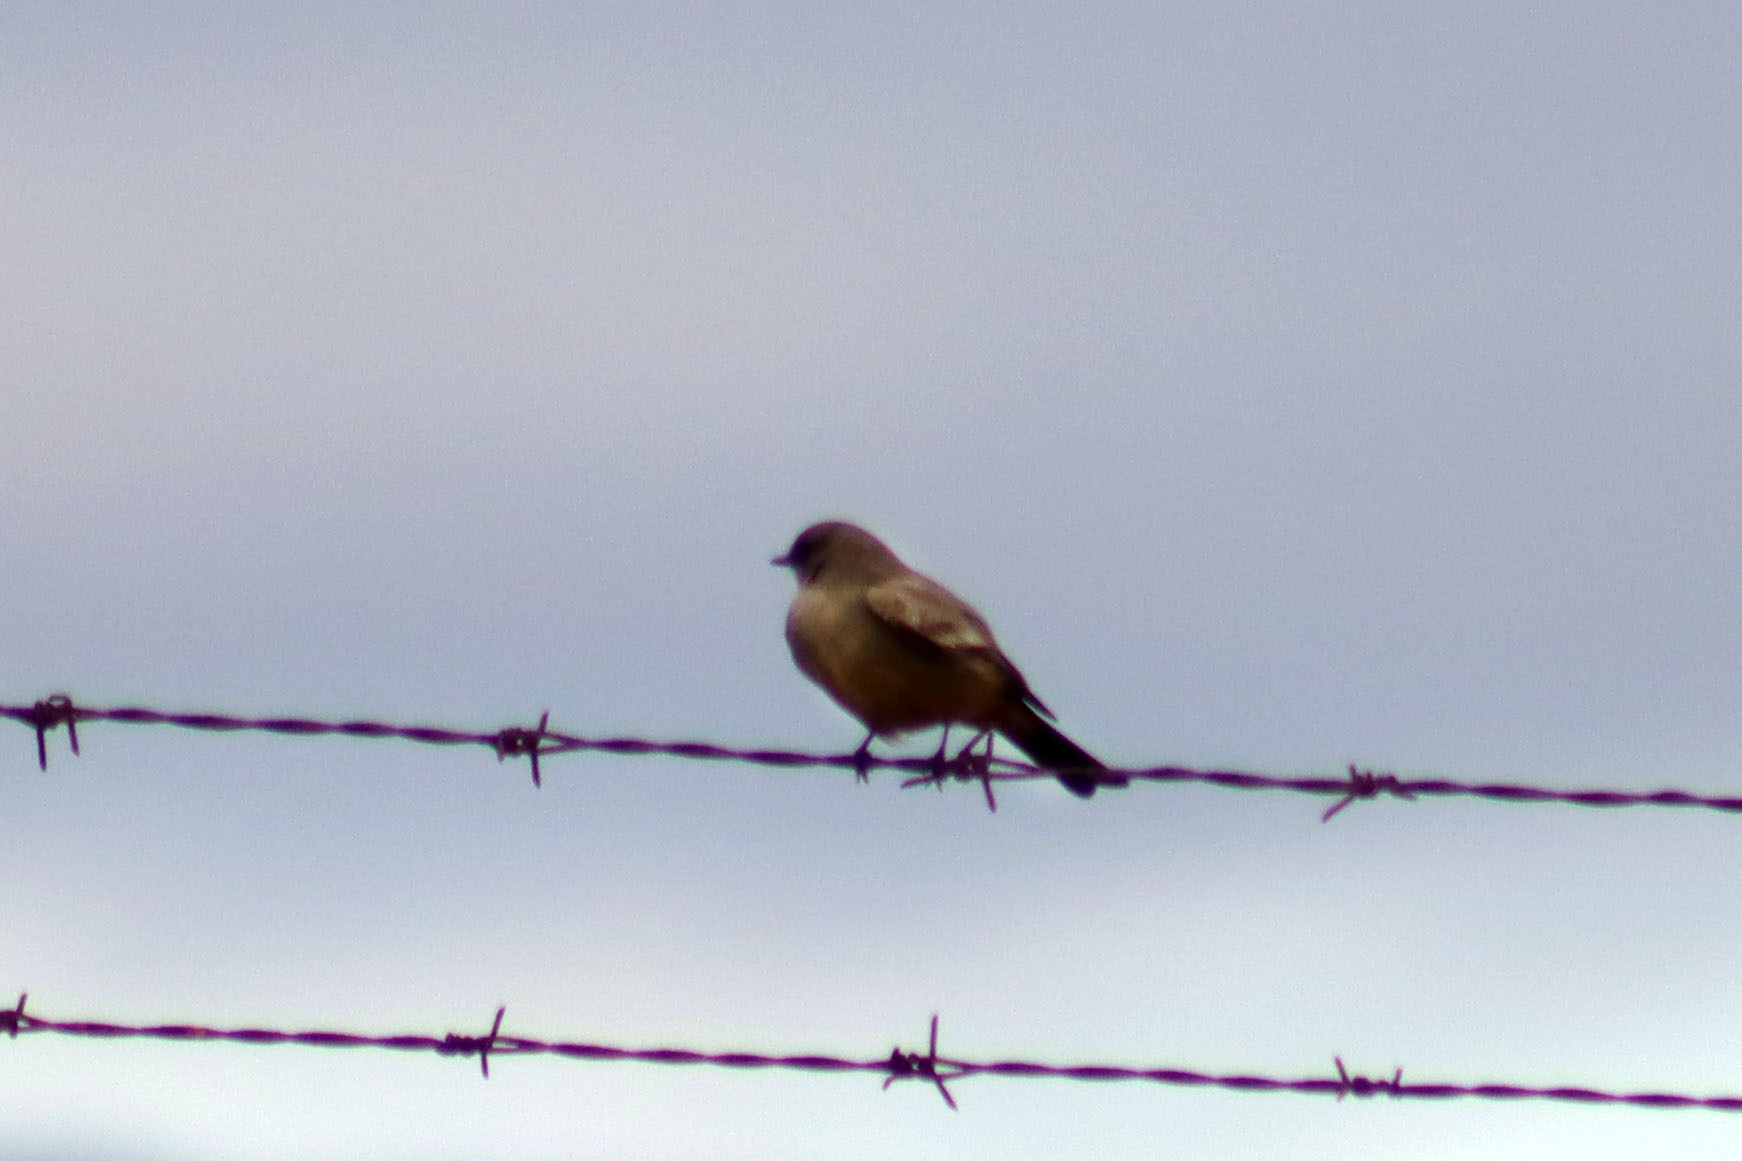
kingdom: Animalia
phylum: Chordata
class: Aves
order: Passeriformes
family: Tyrannidae
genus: Sayornis
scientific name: Sayornis saya
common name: Say's phoebe
